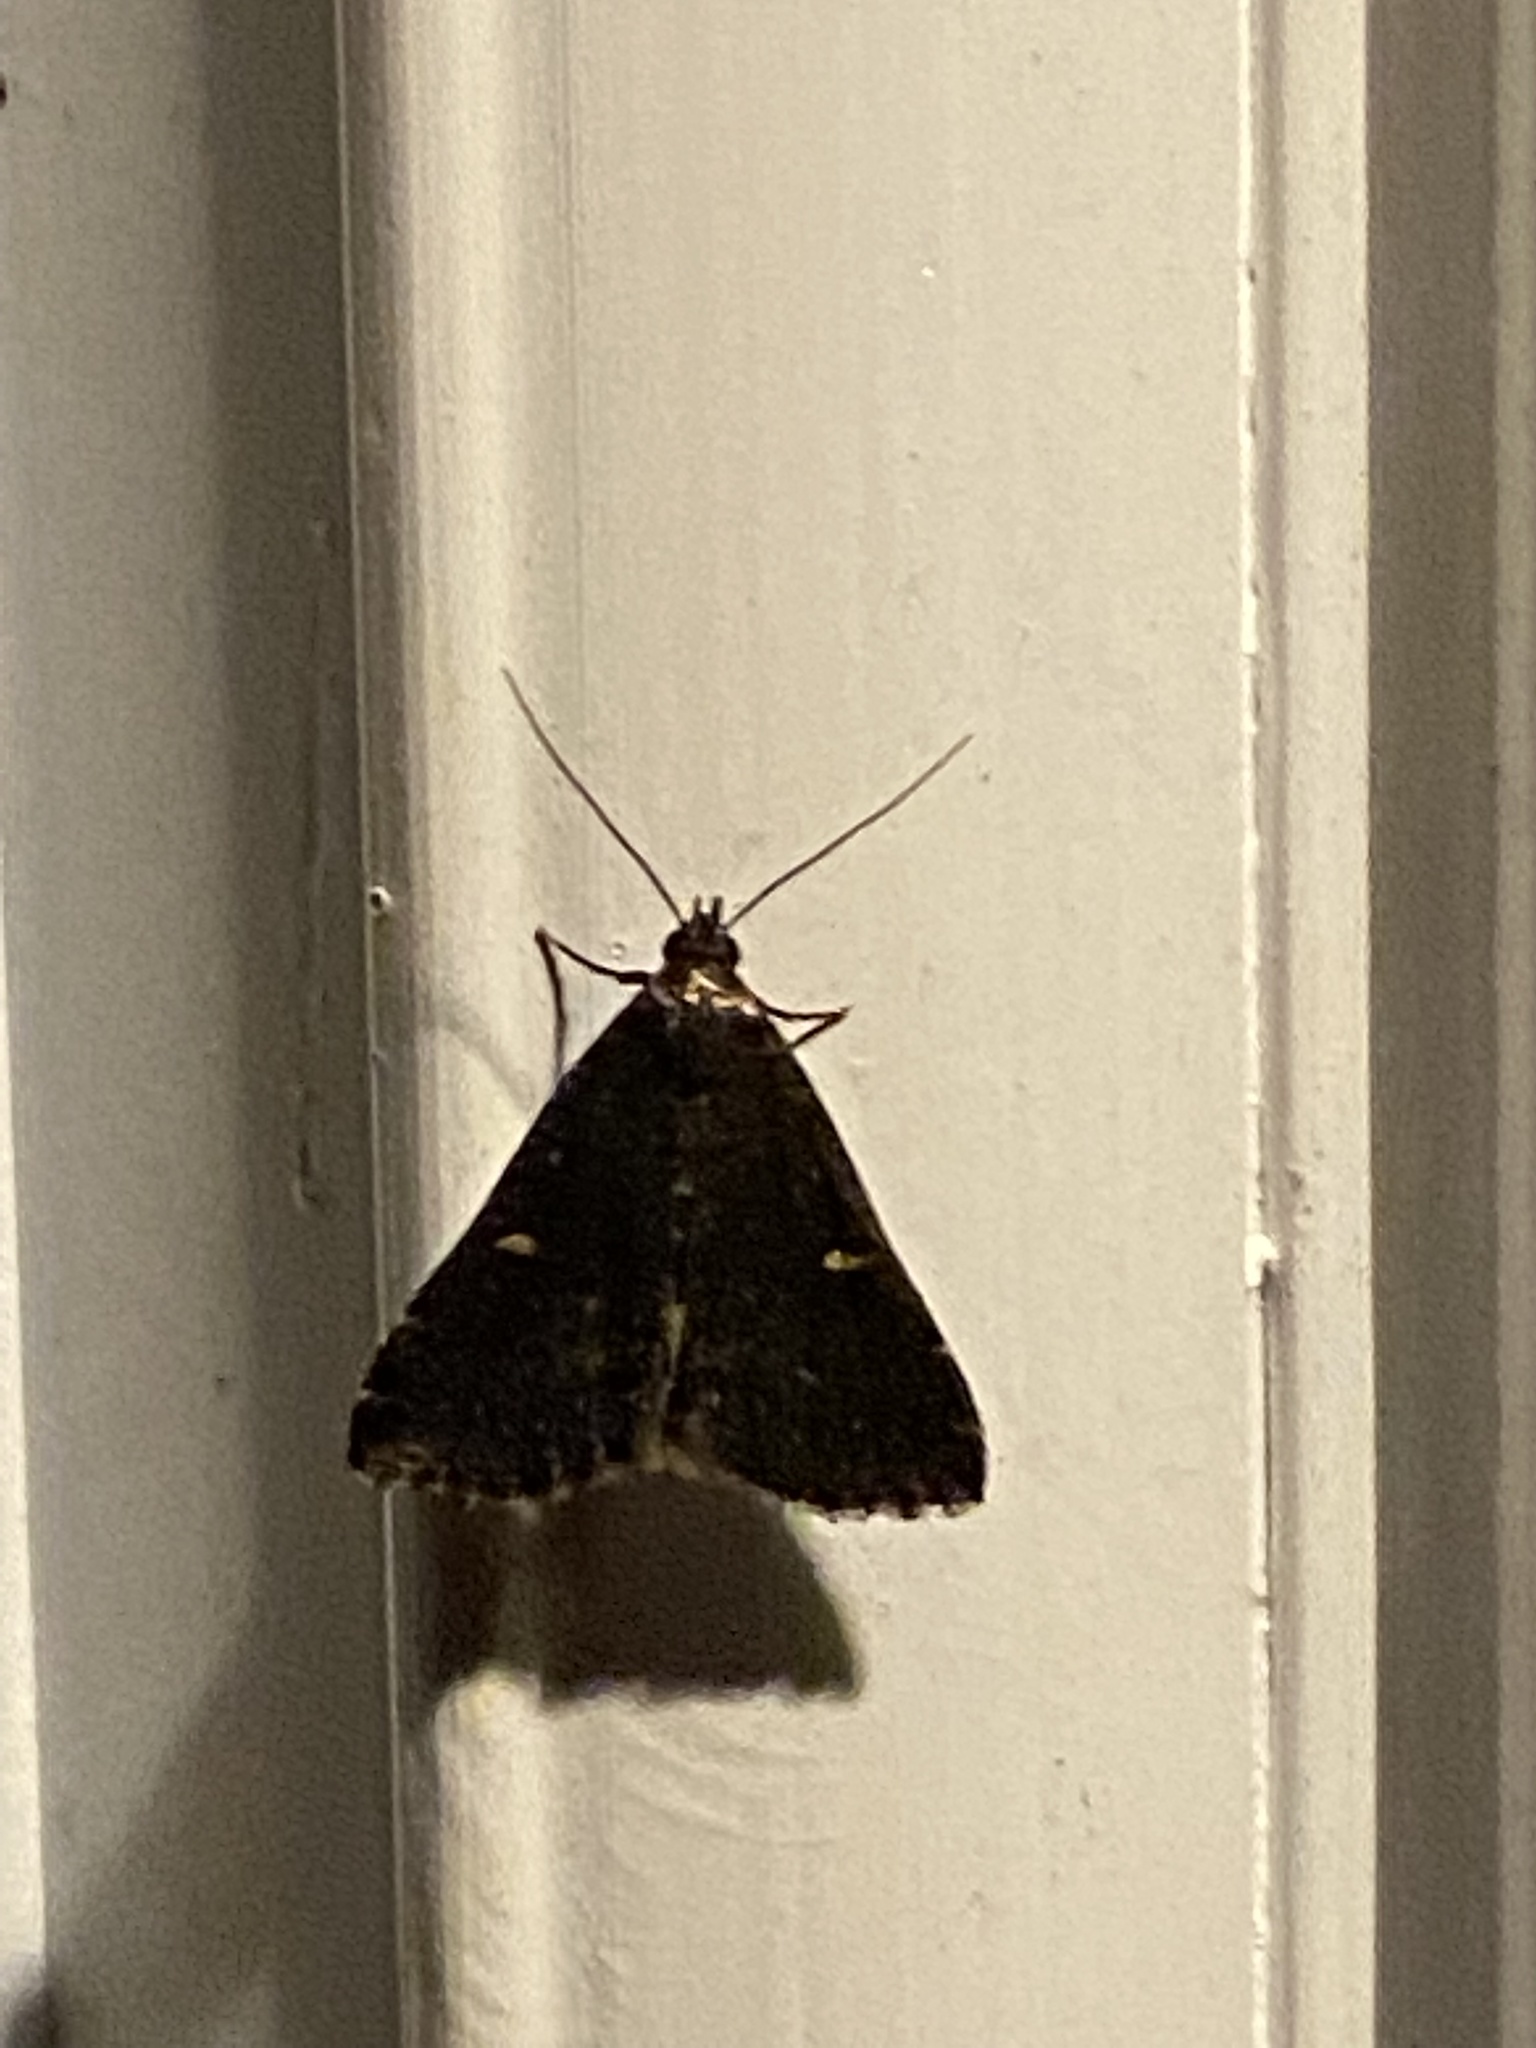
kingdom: Animalia
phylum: Arthropoda
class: Insecta
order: Lepidoptera
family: Erebidae
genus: Tetanolita
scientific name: Tetanolita mynesalis
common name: Smoky tetanolita moth
